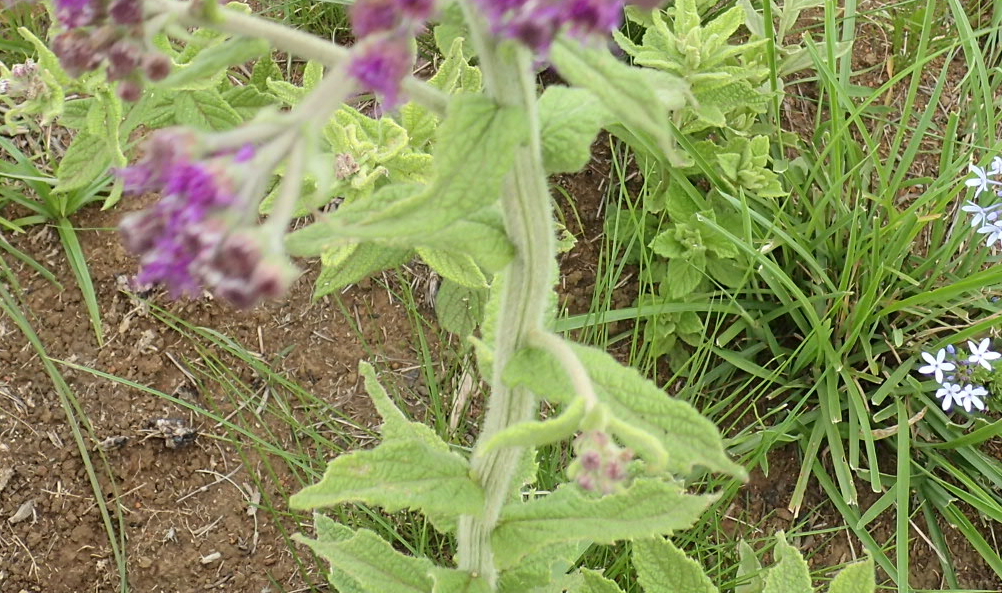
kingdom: Plantae
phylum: Tracheophyta
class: Magnoliopsida
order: Asterales
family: Asteraceae
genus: Hilliardiella
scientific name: Hilliardiella hirsuta
